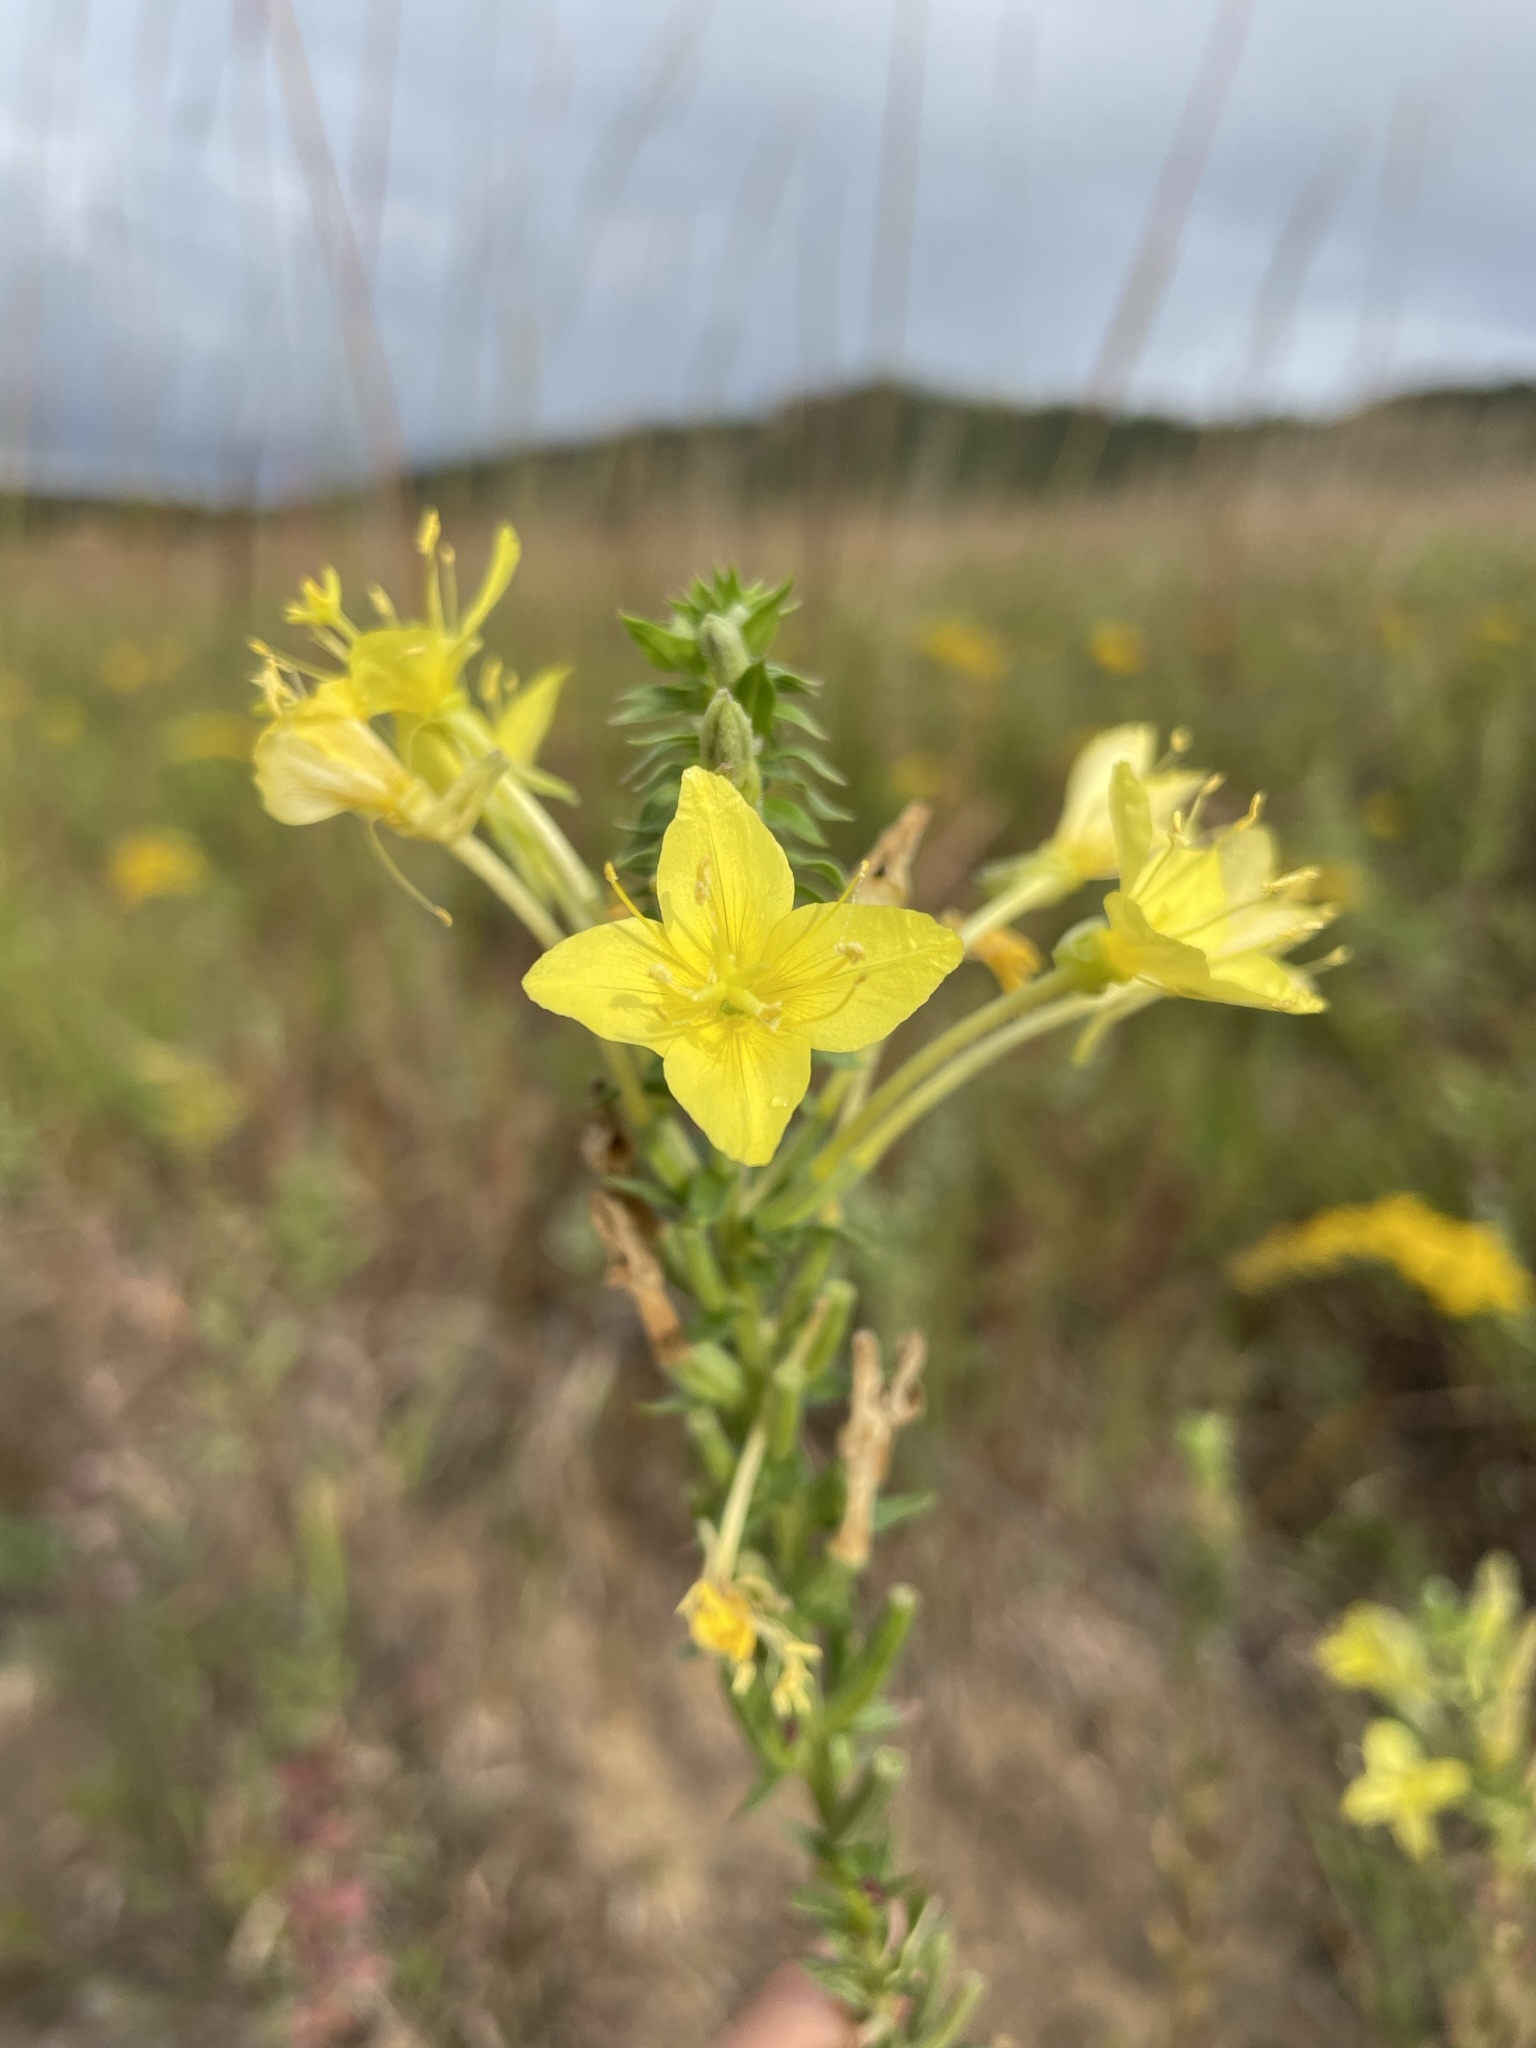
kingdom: Plantae
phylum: Tracheophyta
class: Magnoliopsida
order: Myrtales
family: Onagraceae
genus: Oenothera
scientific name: Oenothera clelandii
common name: Cleland's evening-primrose
